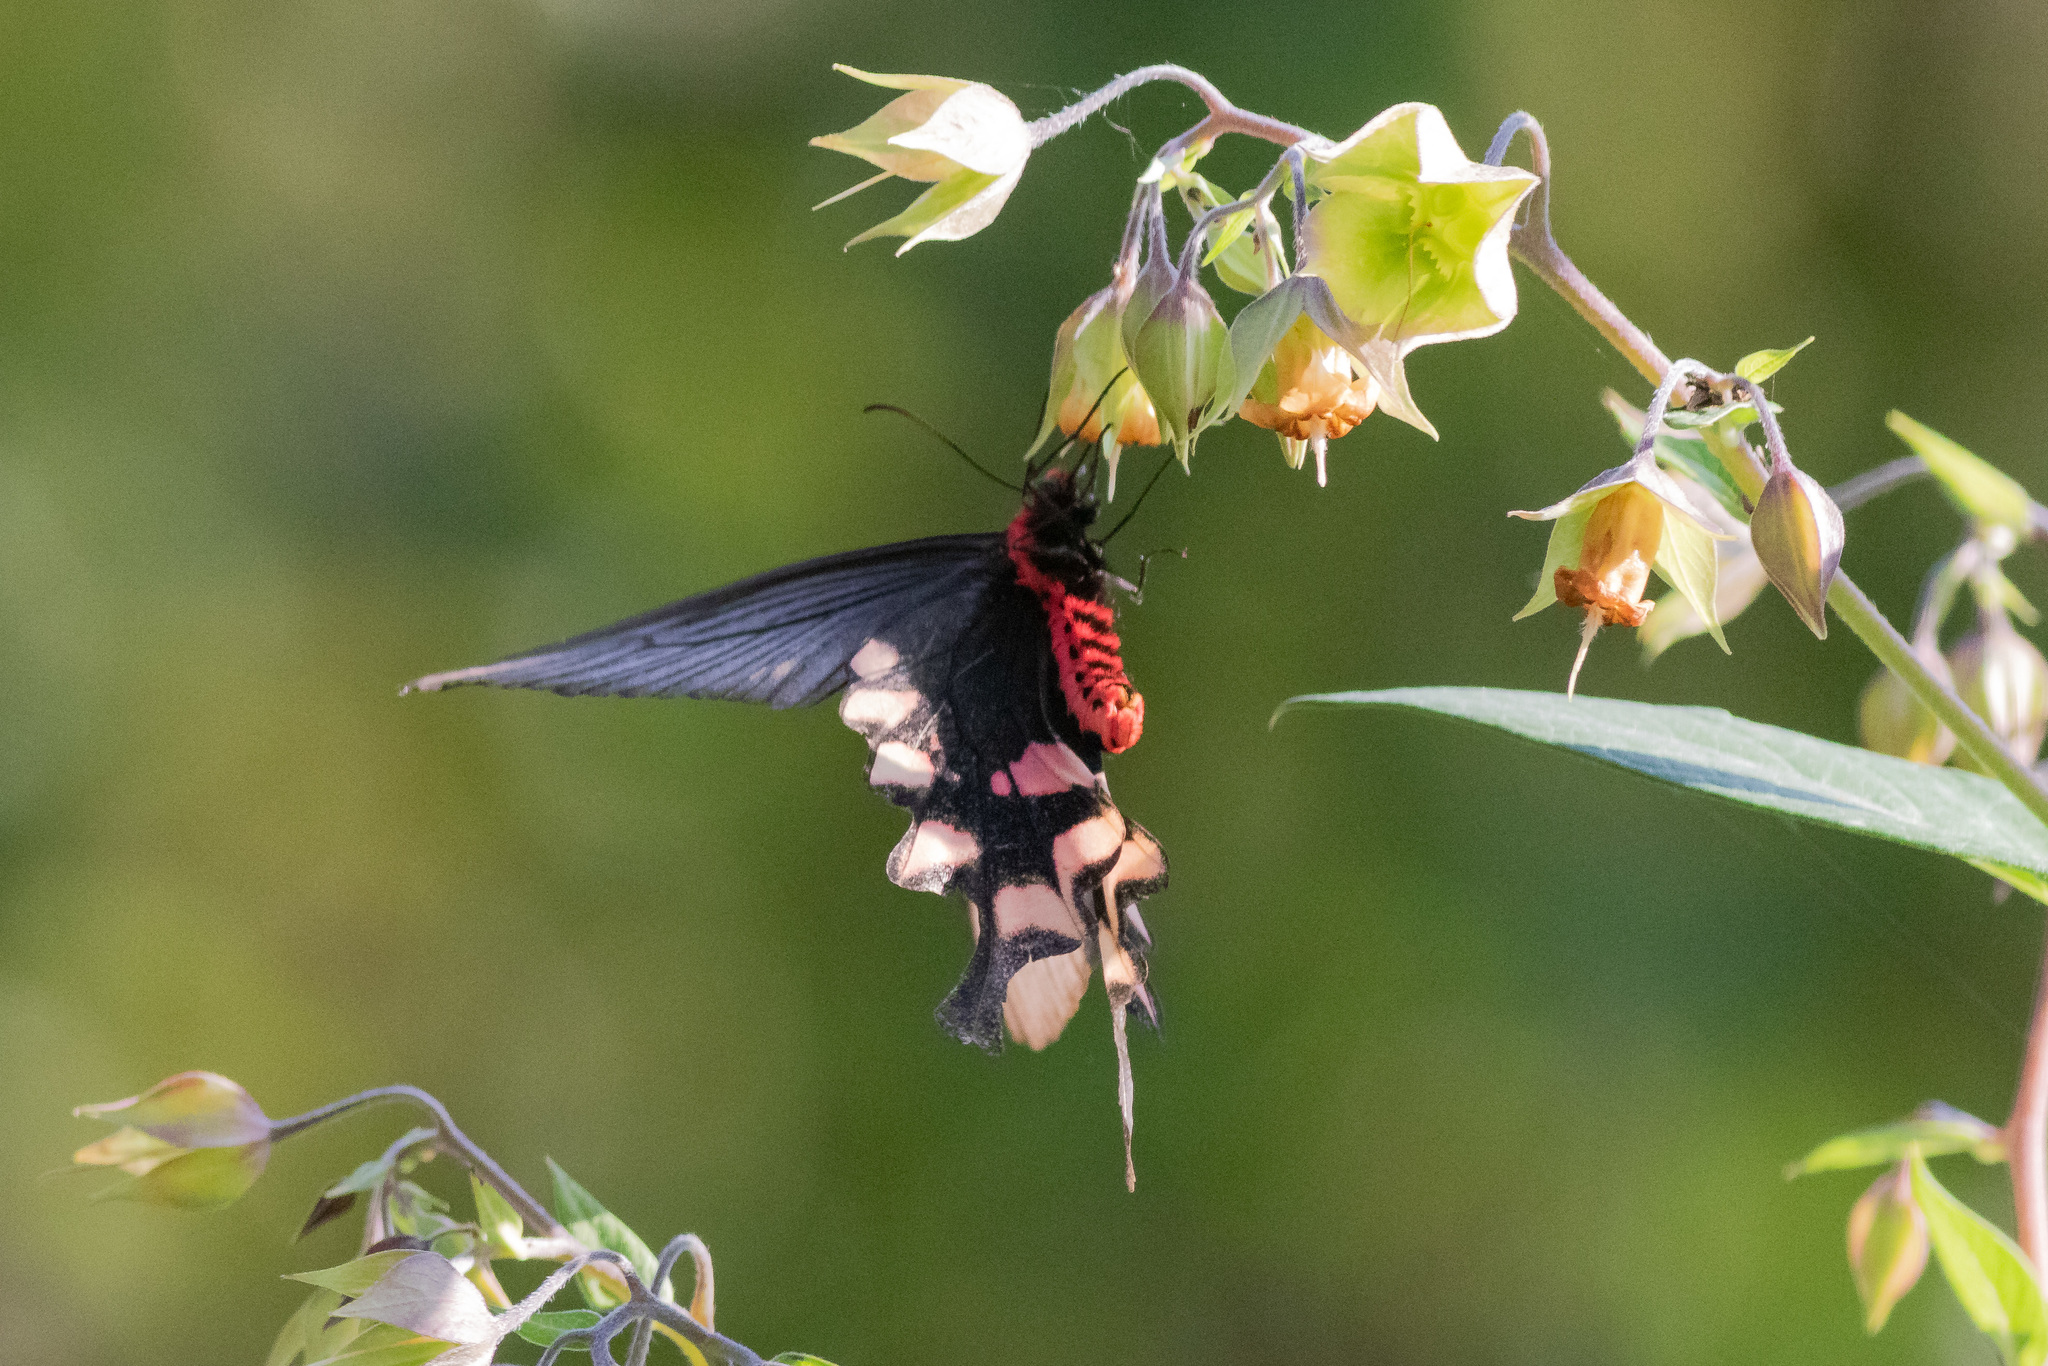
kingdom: Animalia
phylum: Arthropoda
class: Insecta
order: Lepidoptera
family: Papilionidae
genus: Byasa
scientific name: Byasa impediens
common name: Pink-spotted windmill
